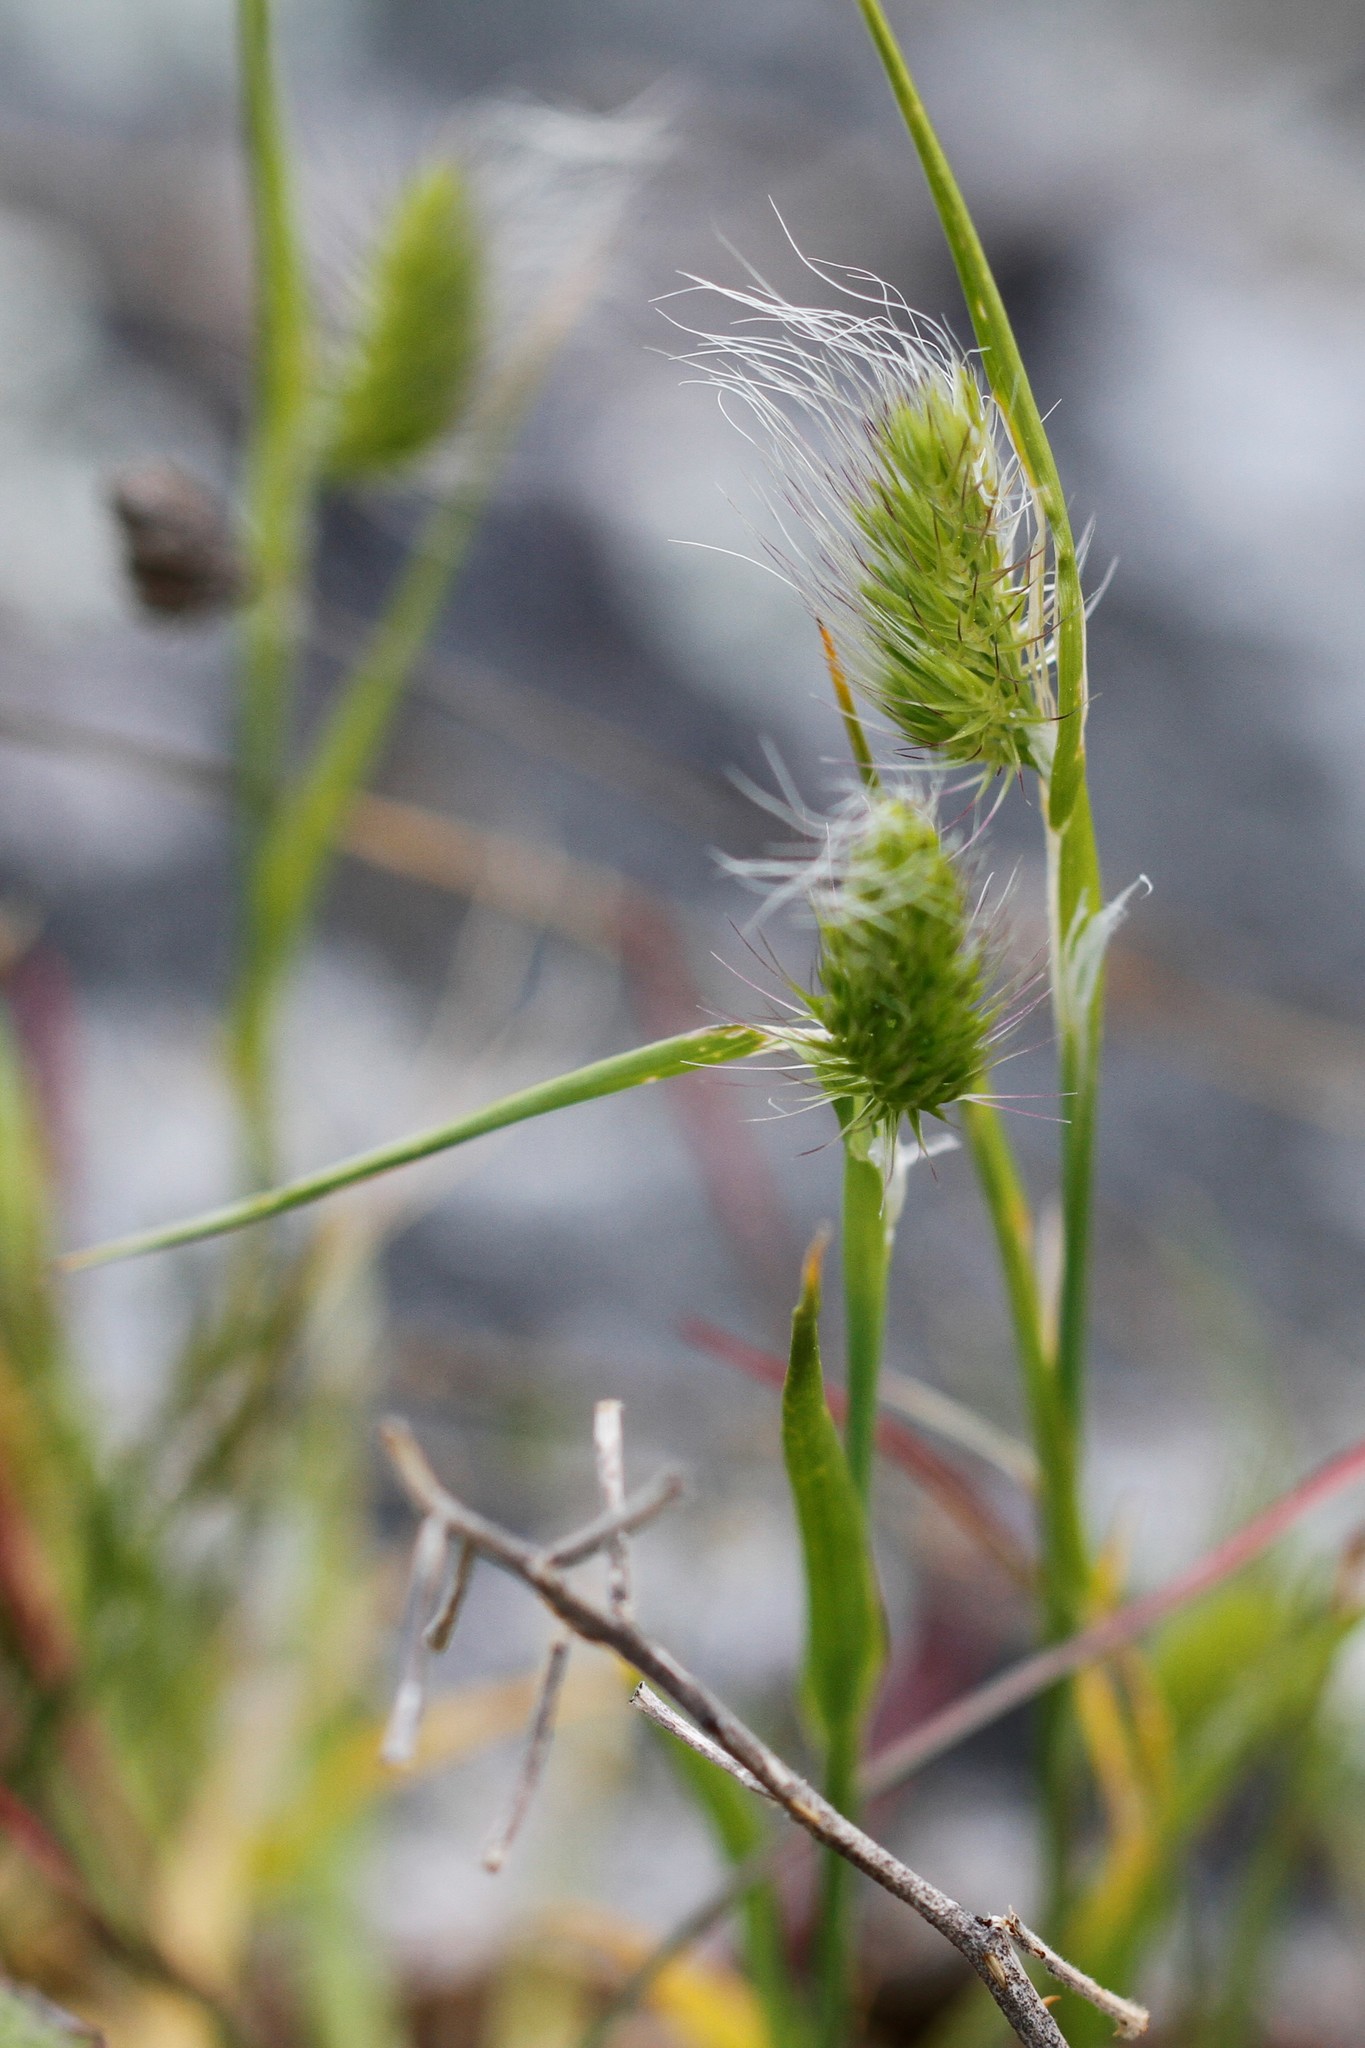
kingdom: Plantae
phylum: Tracheophyta
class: Liliopsida
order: Poales
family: Poaceae
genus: Cynosurus
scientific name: Cynosurus echinatus
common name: Rough dog's-tail
